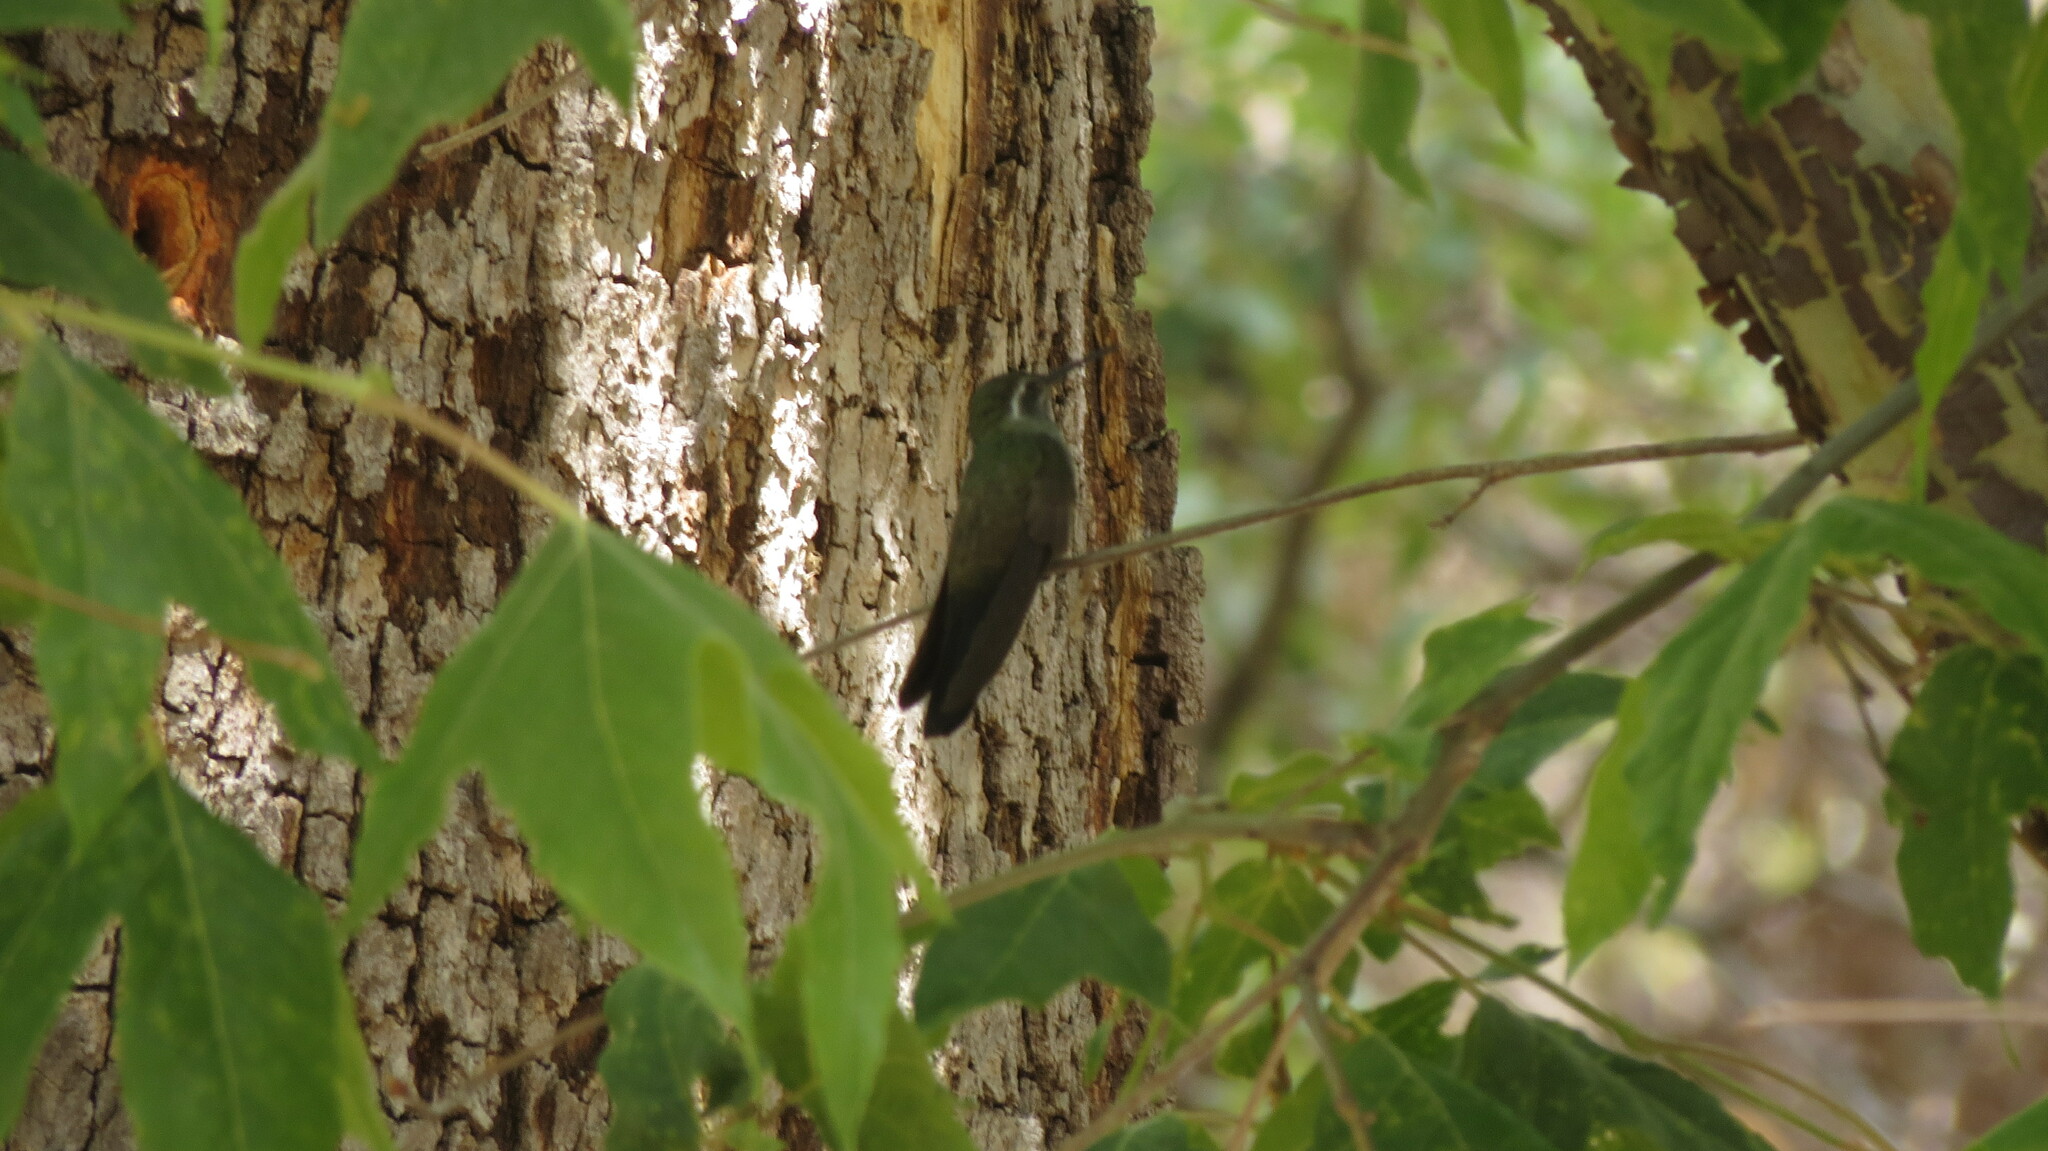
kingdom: Animalia
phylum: Chordata
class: Aves
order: Apodiformes
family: Trochilidae
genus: Lampornis
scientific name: Lampornis clemenciae
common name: Blue-throated mountaingem
